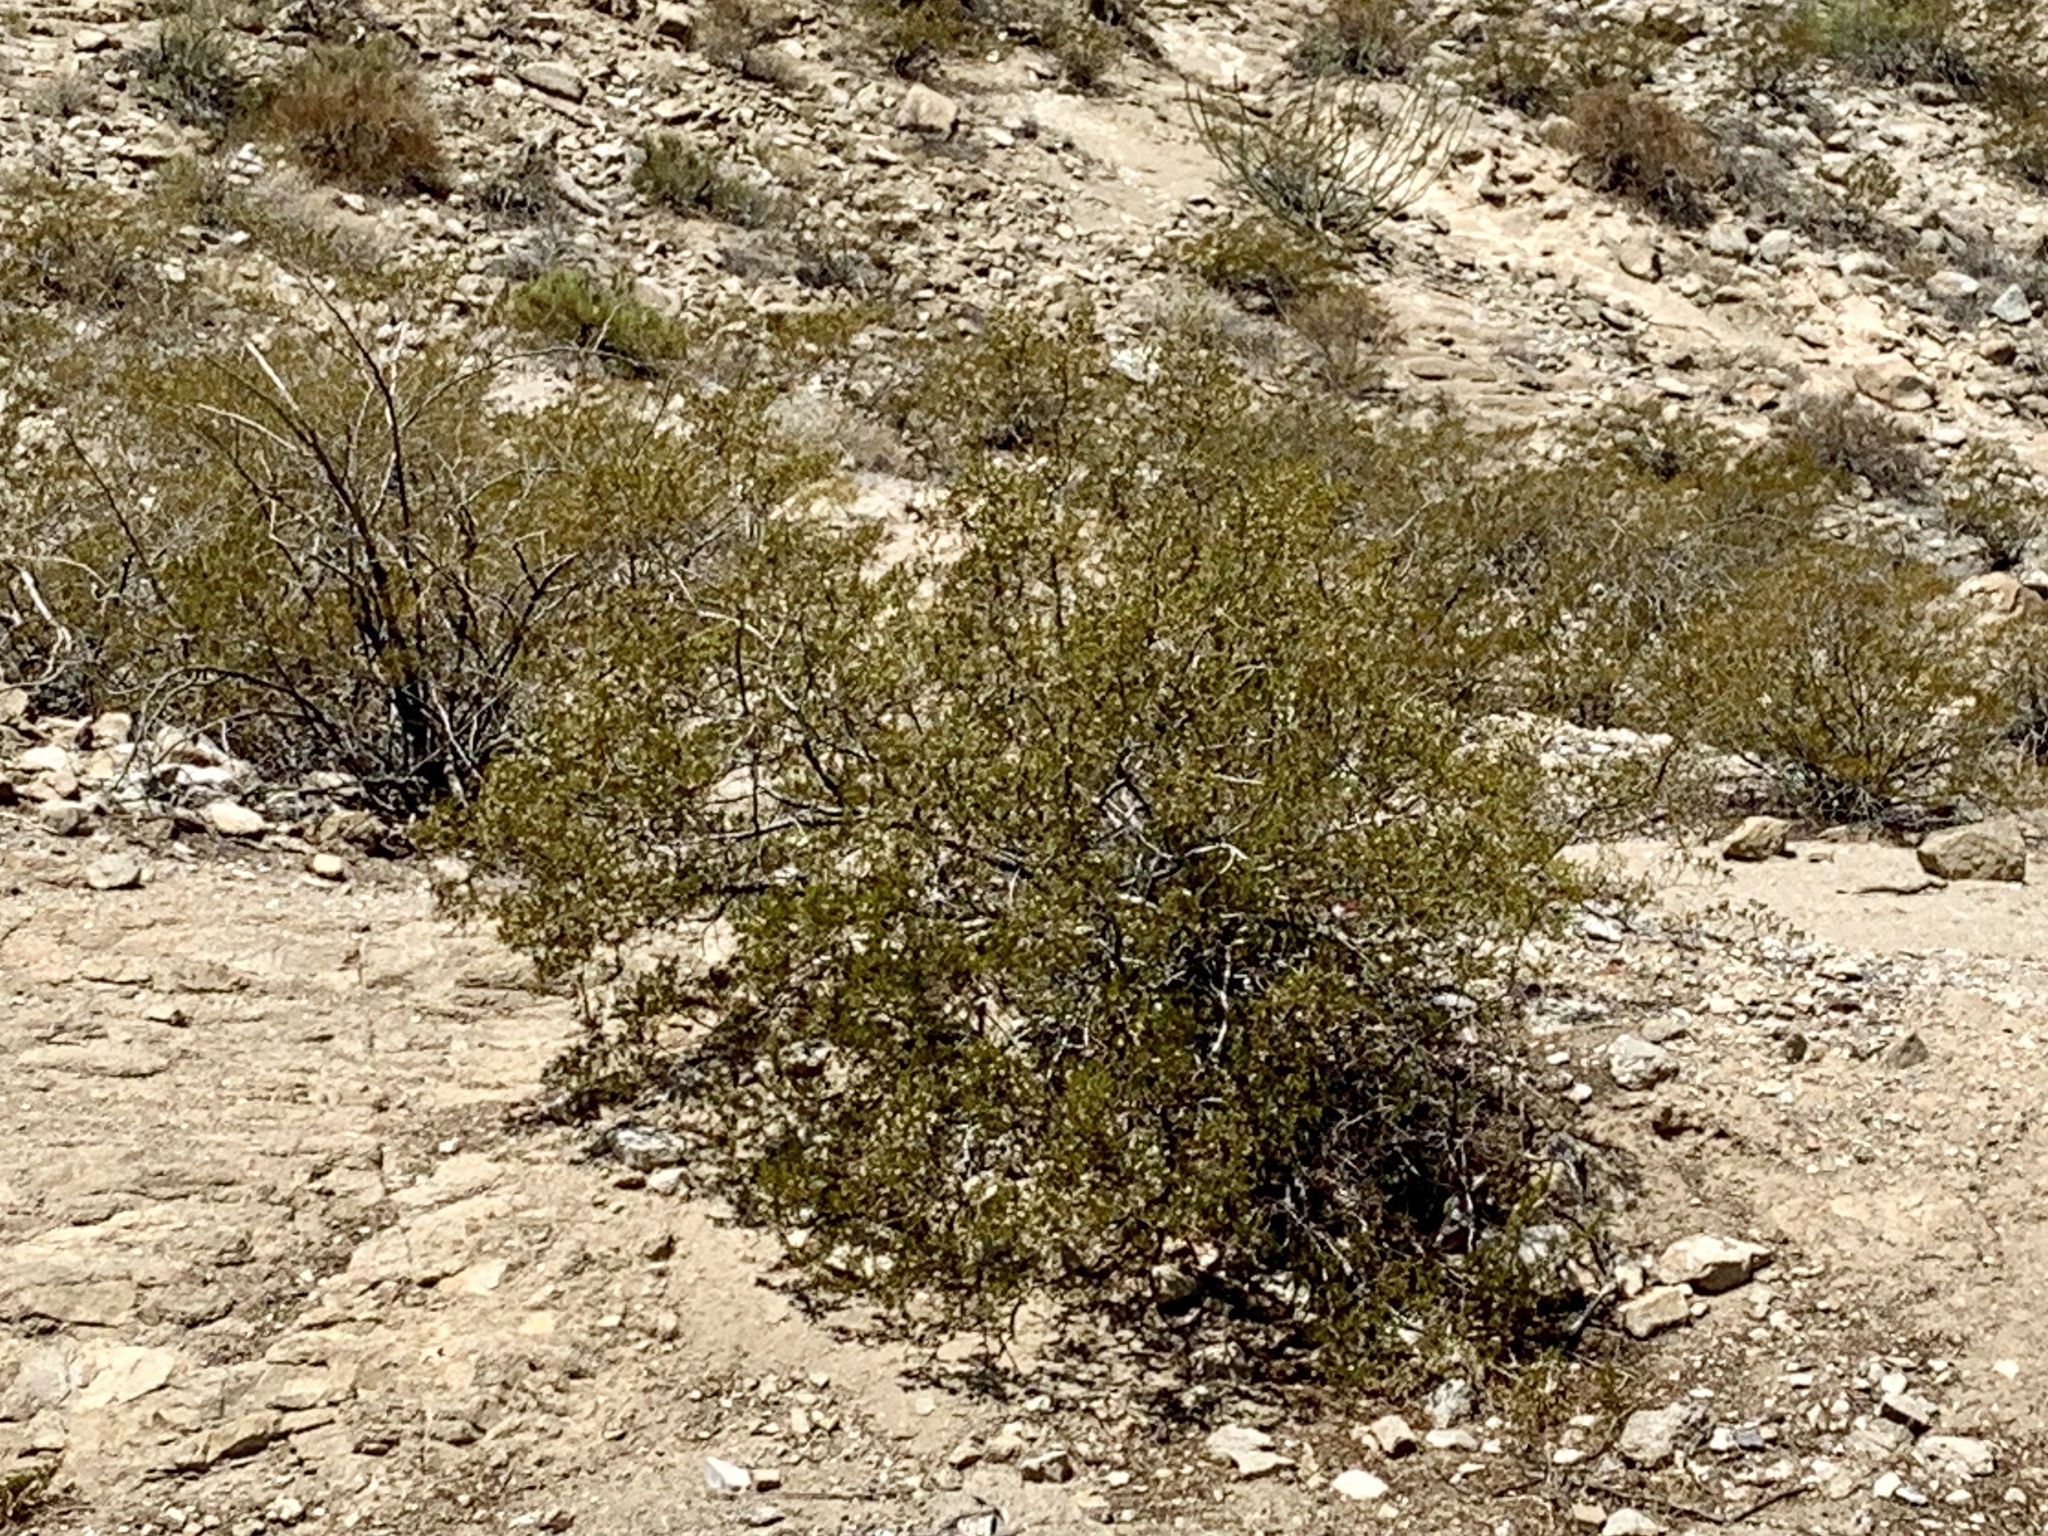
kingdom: Plantae
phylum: Tracheophyta
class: Magnoliopsida
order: Zygophyllales
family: Zygophyllaceae
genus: Larrea
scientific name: Larrea tridentata
